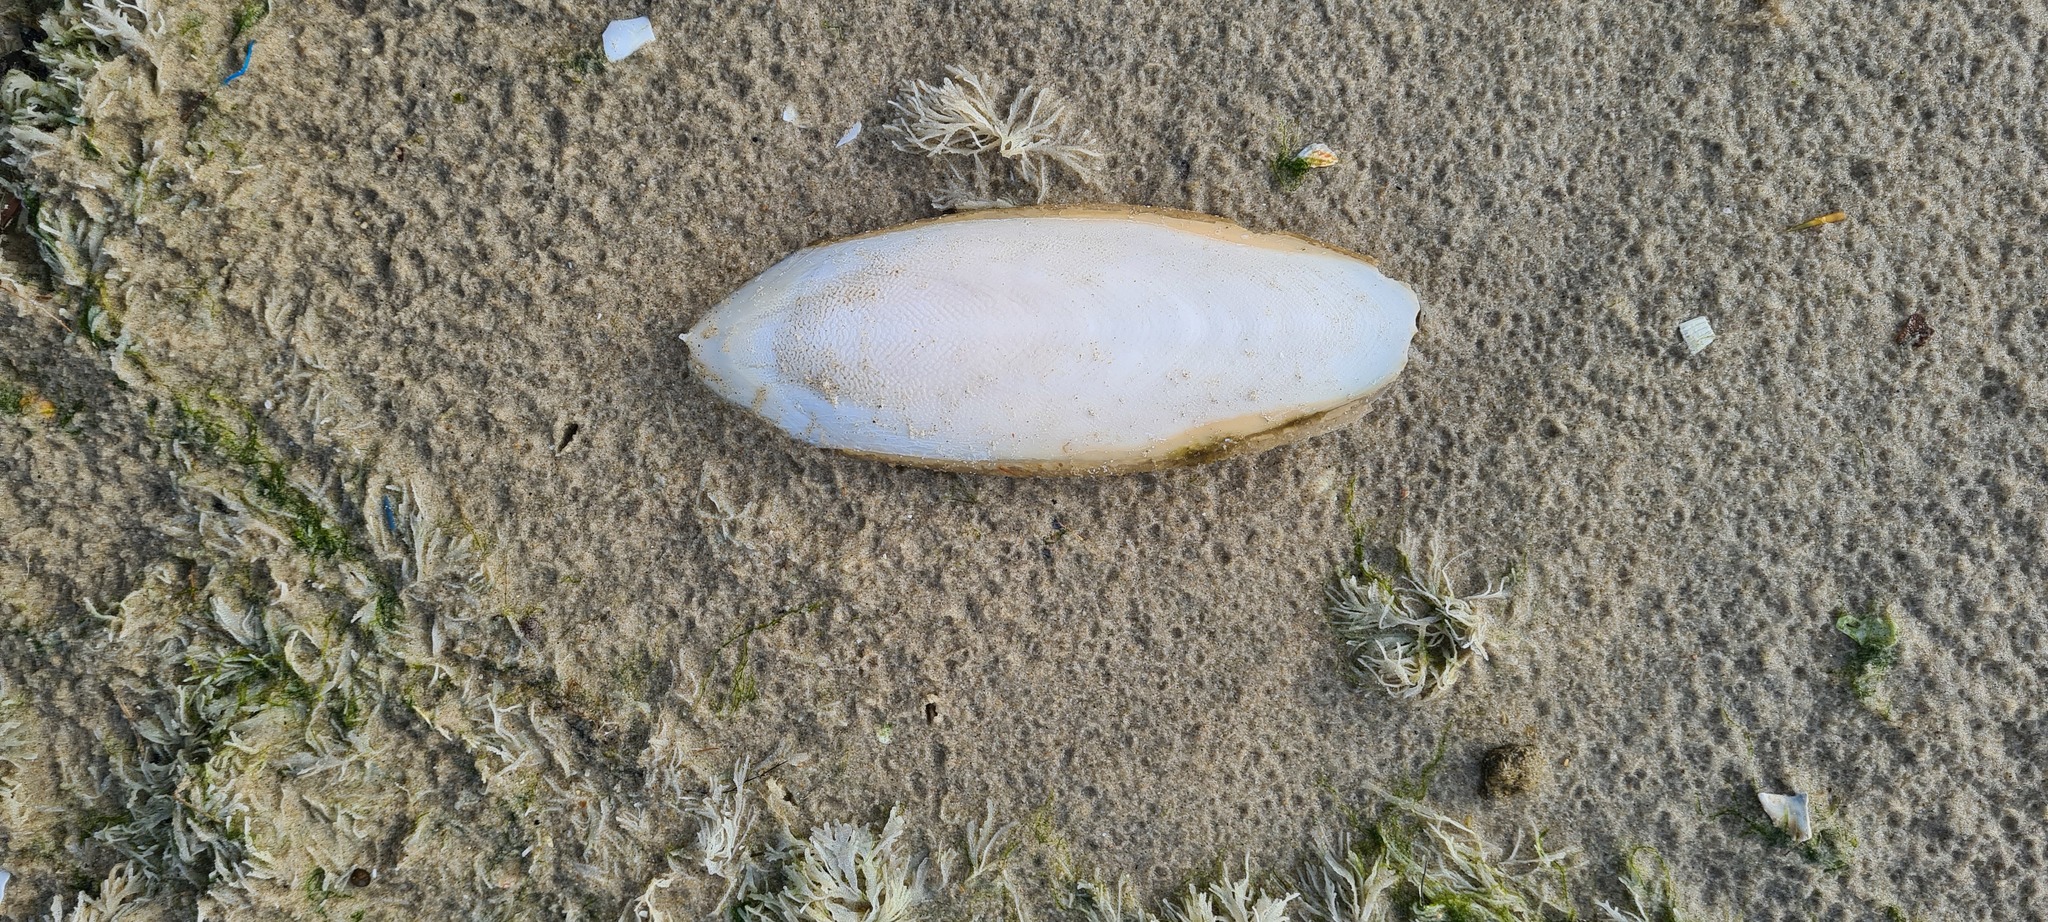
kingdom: Animalia
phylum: Mollusca
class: Cephalopoda
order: Sepiida
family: Sepiidae
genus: Sepia
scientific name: Sepia officinalis
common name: Common cuttlefish
